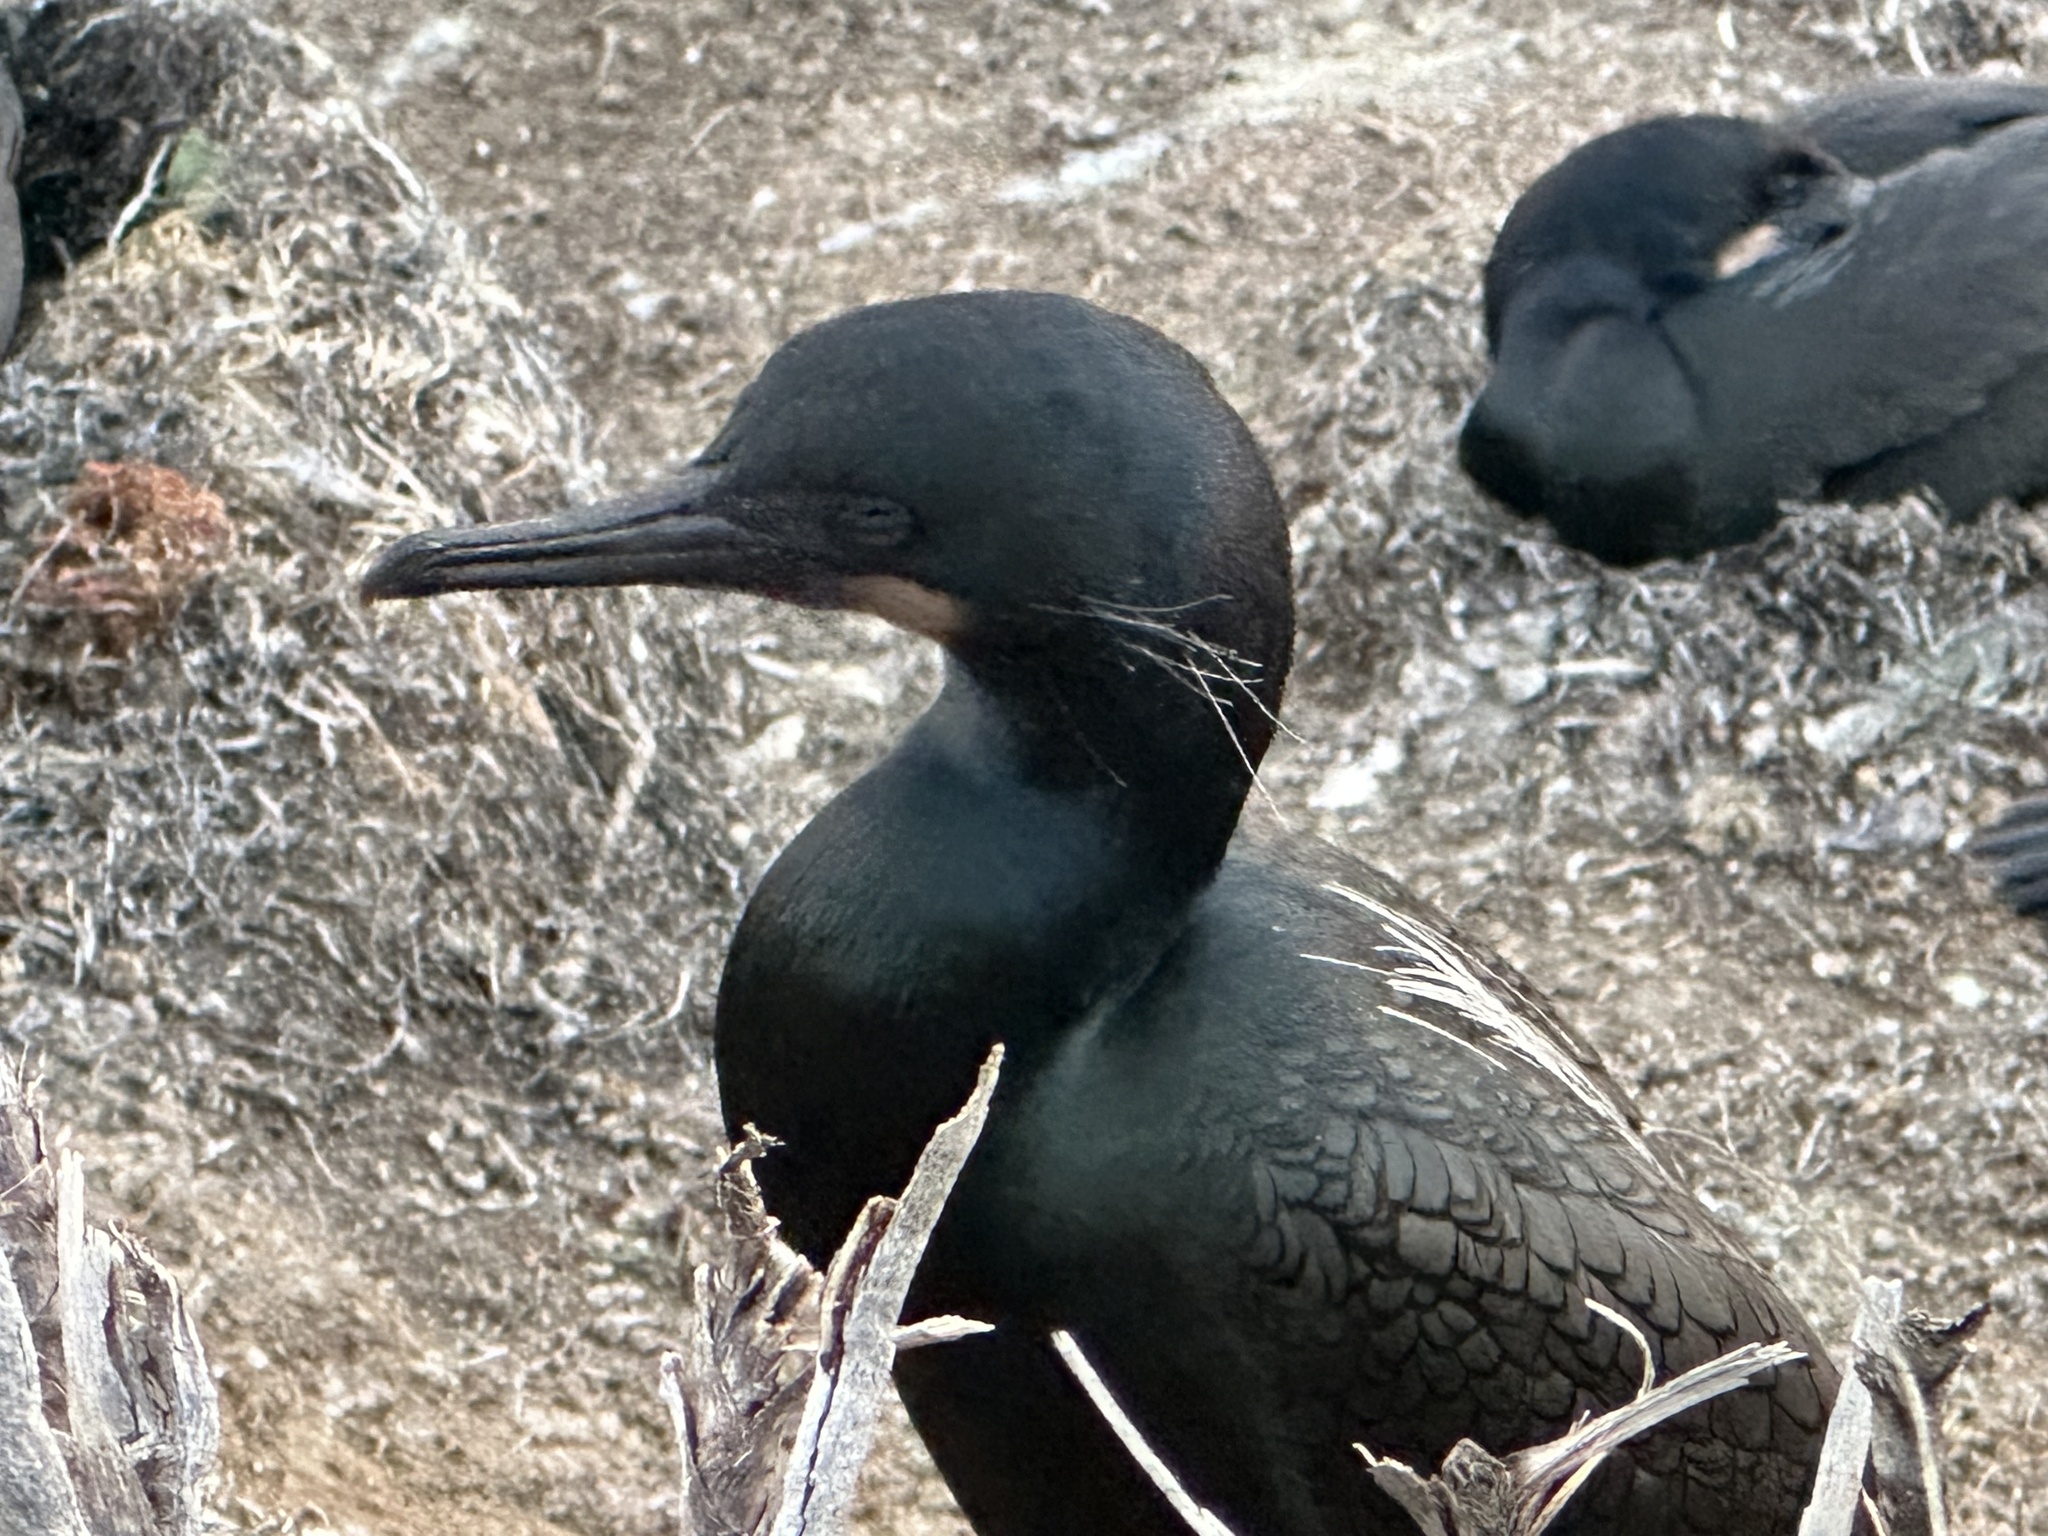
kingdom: Animalia
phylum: Chordata
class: Aves
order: Suliformes
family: Phalacrocoracidae
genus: Urile
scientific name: Urile penicillatus
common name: Brandt's cormorant
